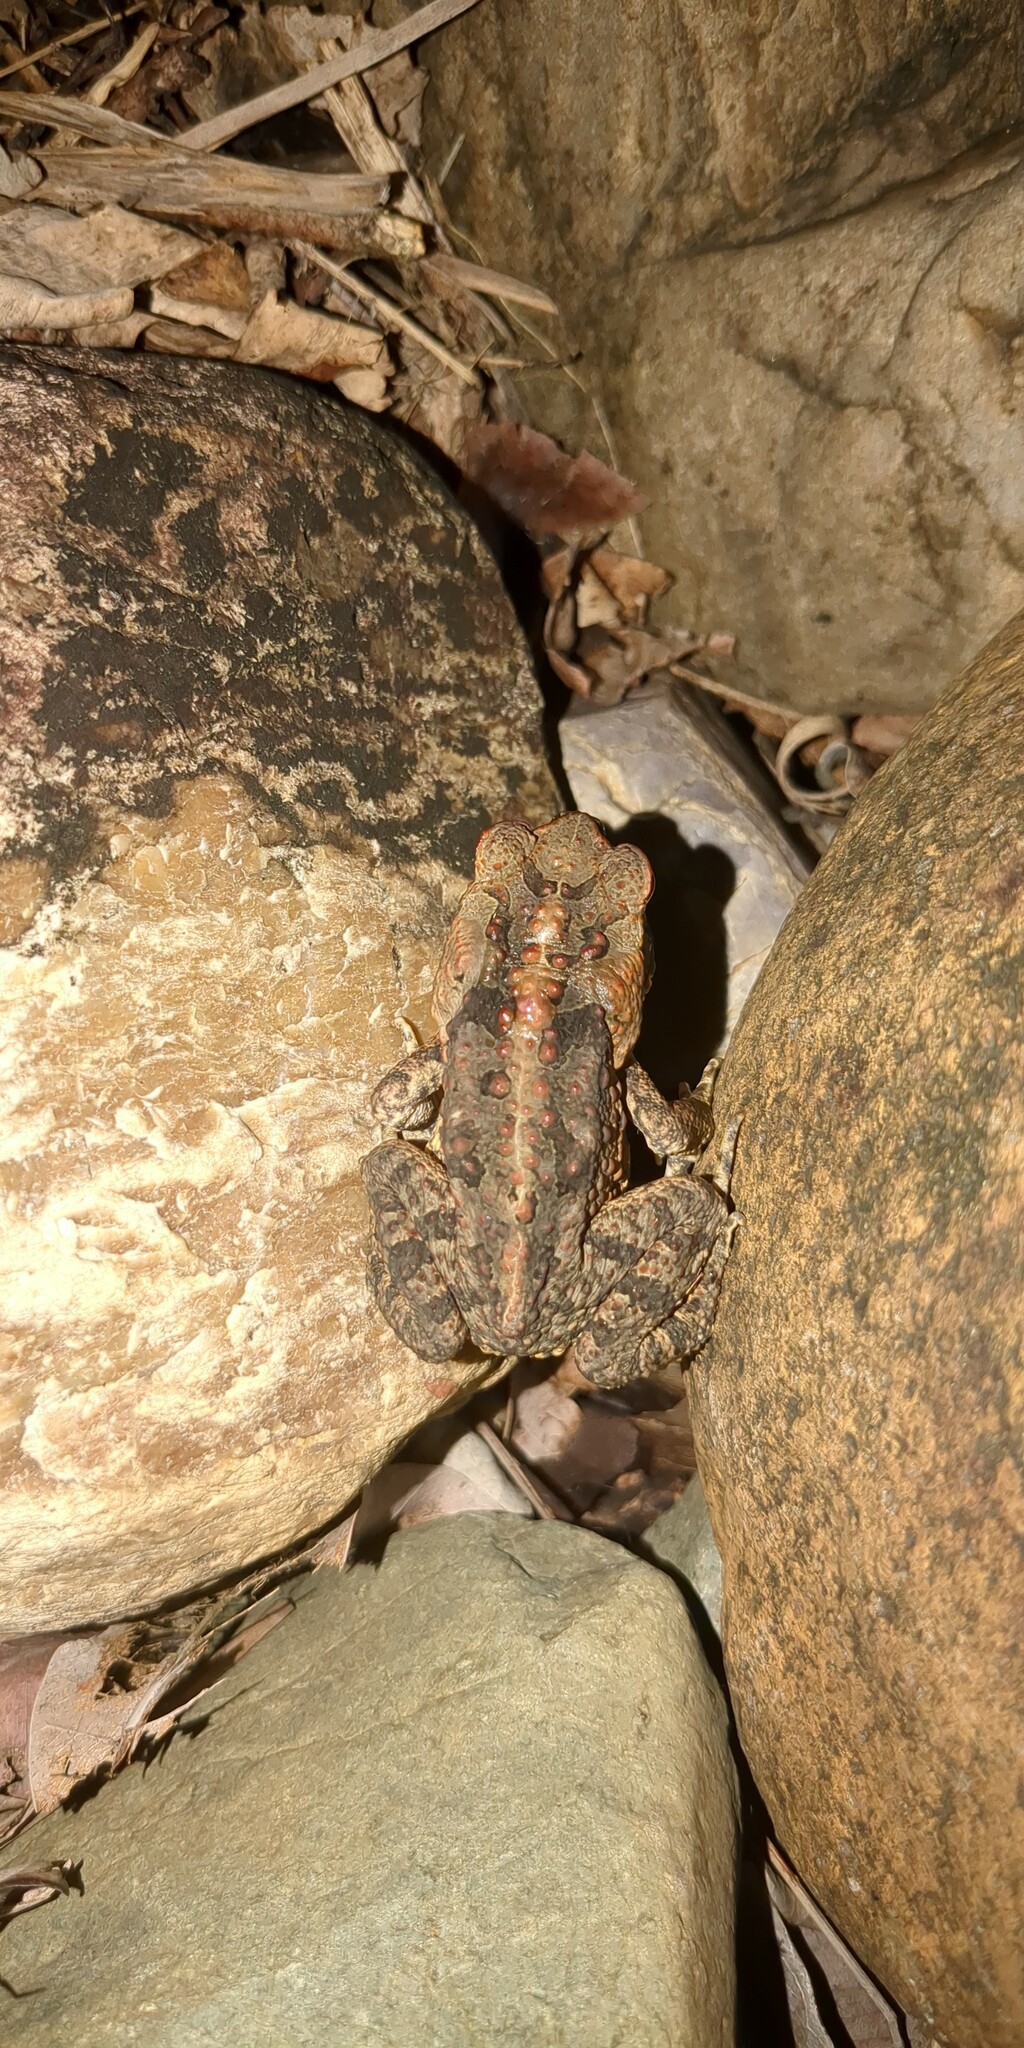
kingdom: Animalia
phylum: Chordata
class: Amphibia
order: Anura
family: Bufonidae
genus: Rhinella
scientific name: Rhinella marina
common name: Cane toad
